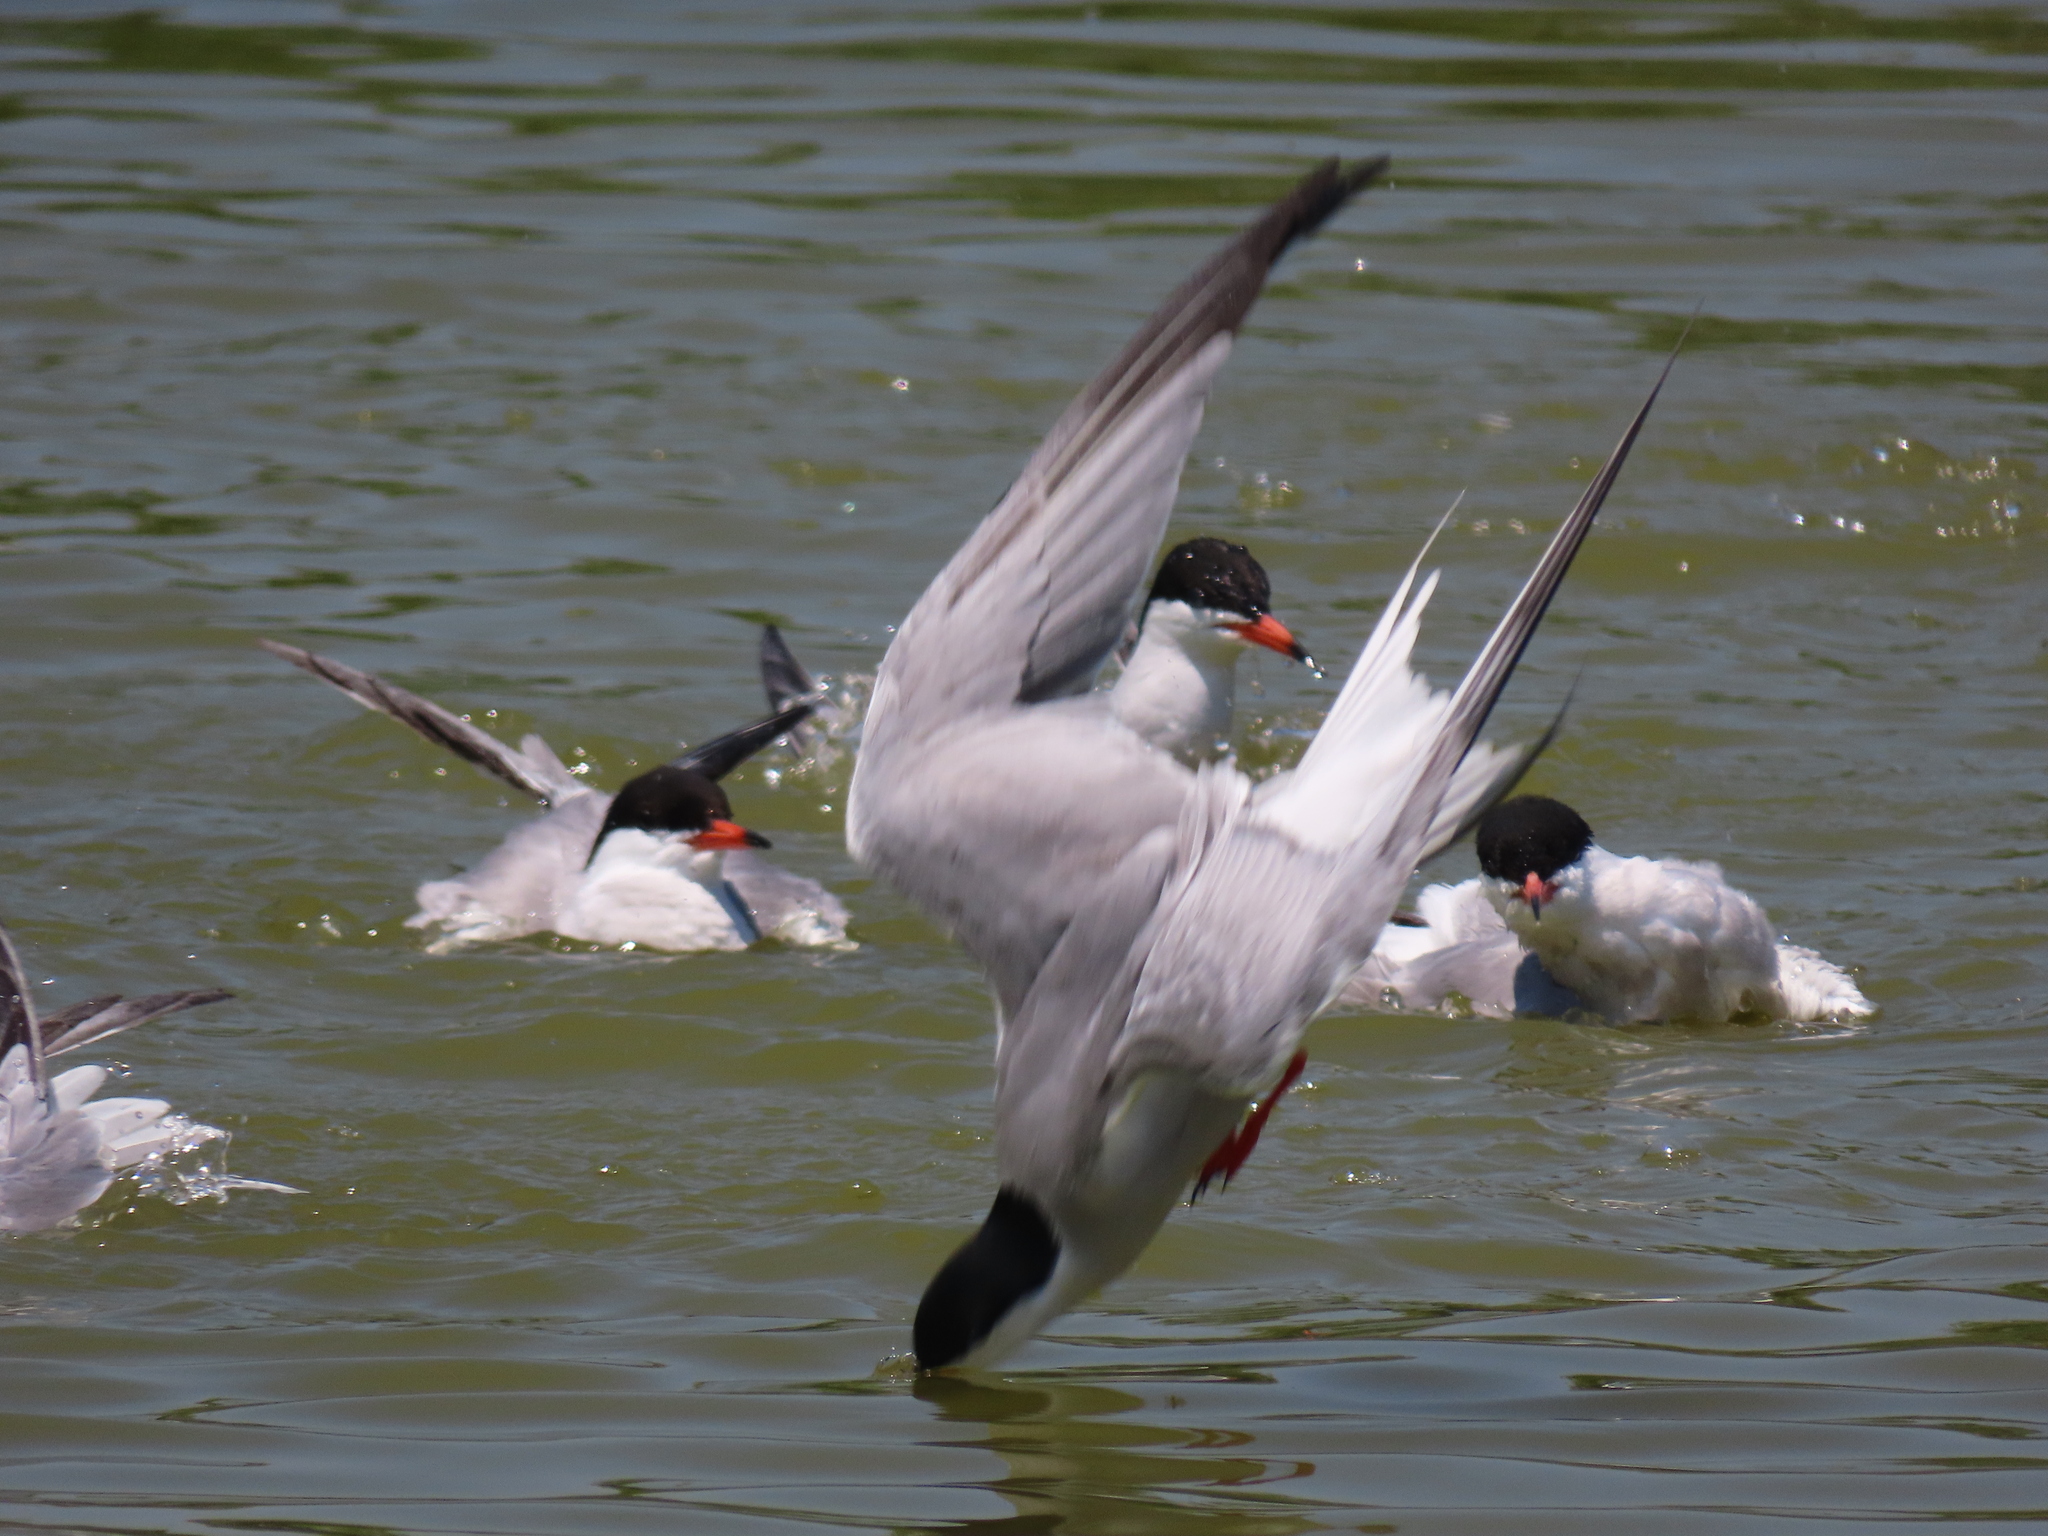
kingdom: Animalia
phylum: Chordata
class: Aves
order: Charadriiformes
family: Laridae
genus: Sterna
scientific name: Sterna hirundo
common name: Common tern
